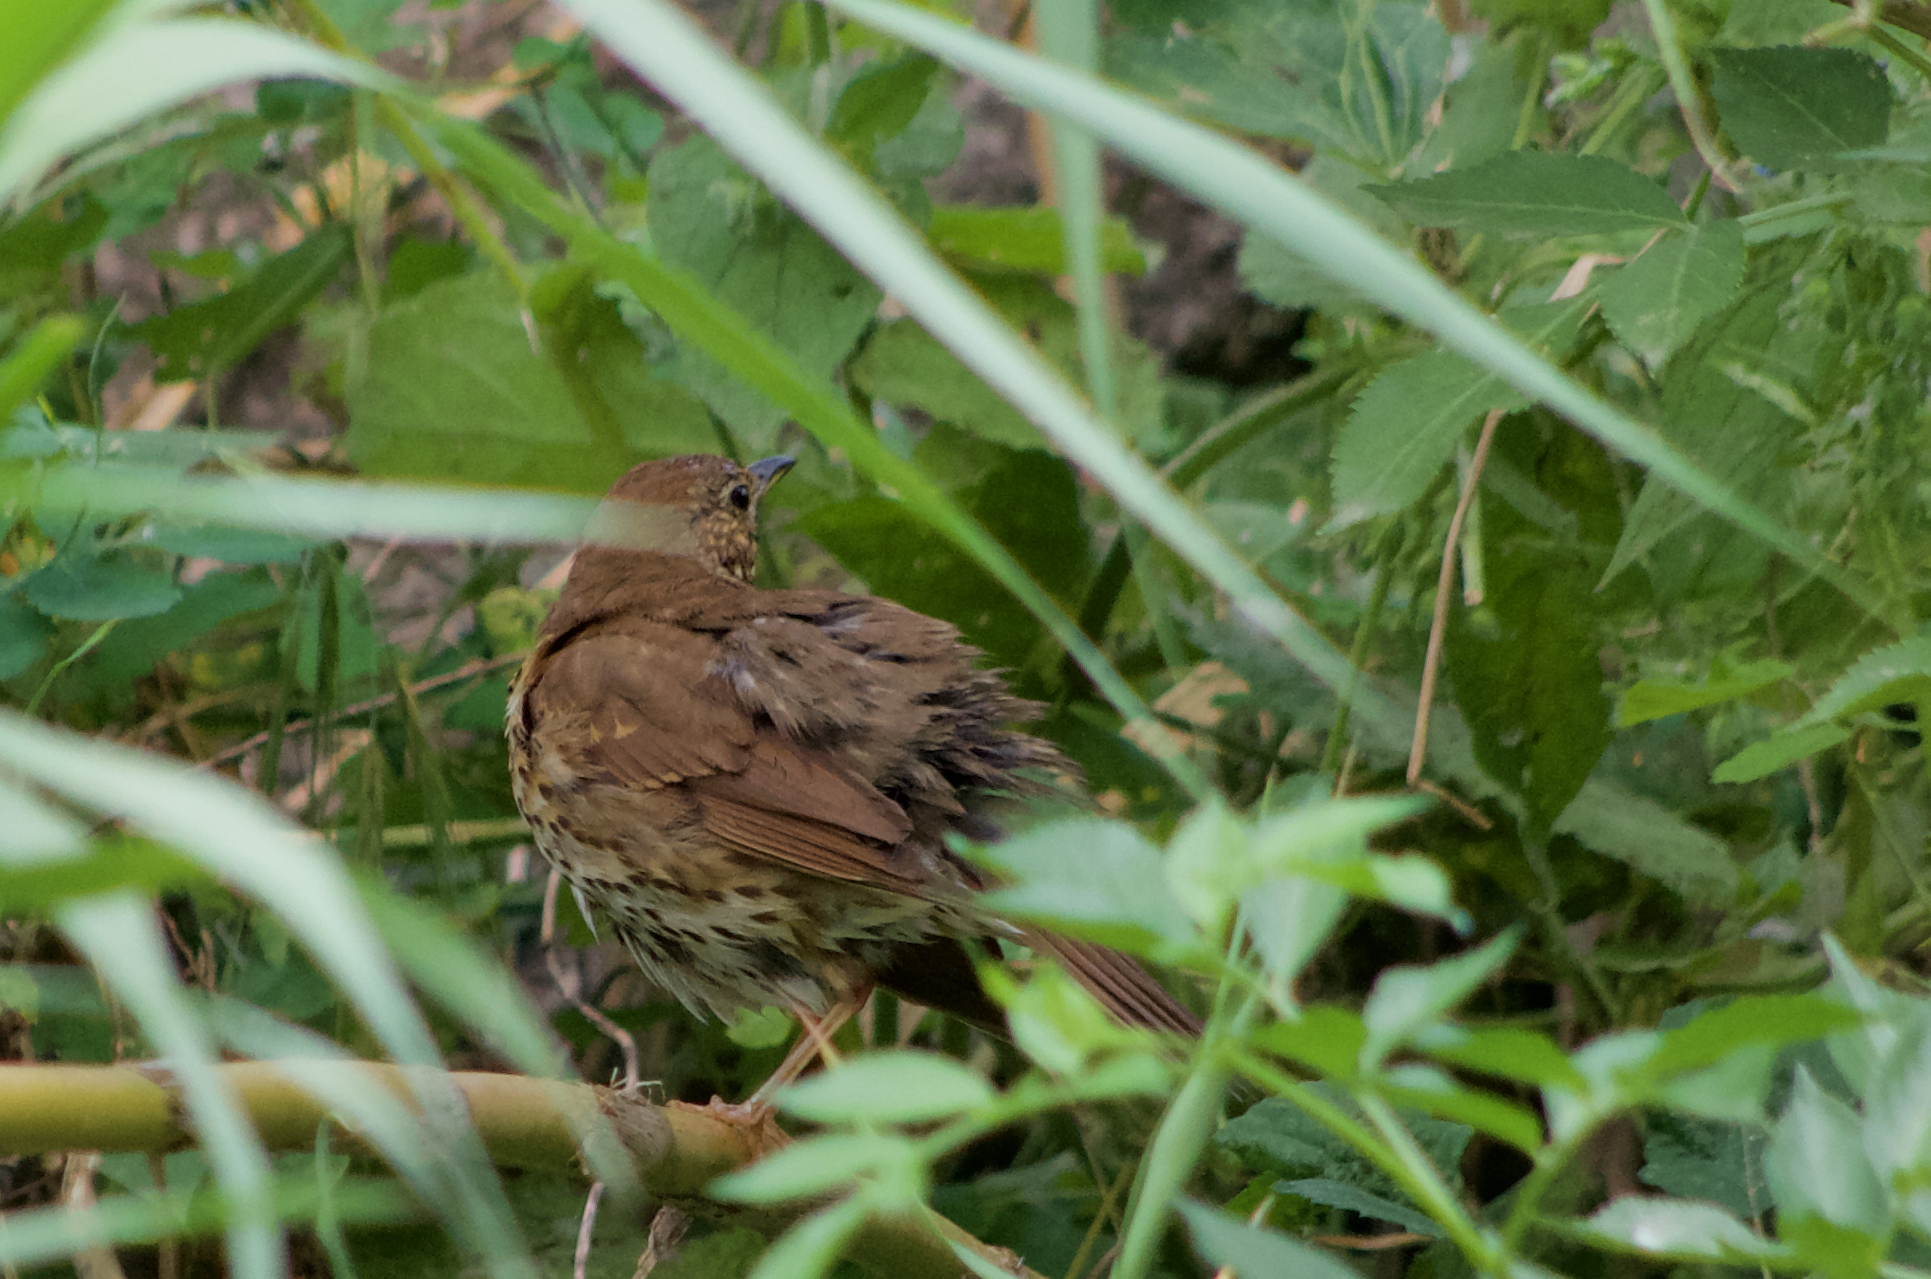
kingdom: Animalia
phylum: Chordata
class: Aves
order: Passeriformes
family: Turdidae
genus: Turdus
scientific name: Turdus philomelos
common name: Song thrush
